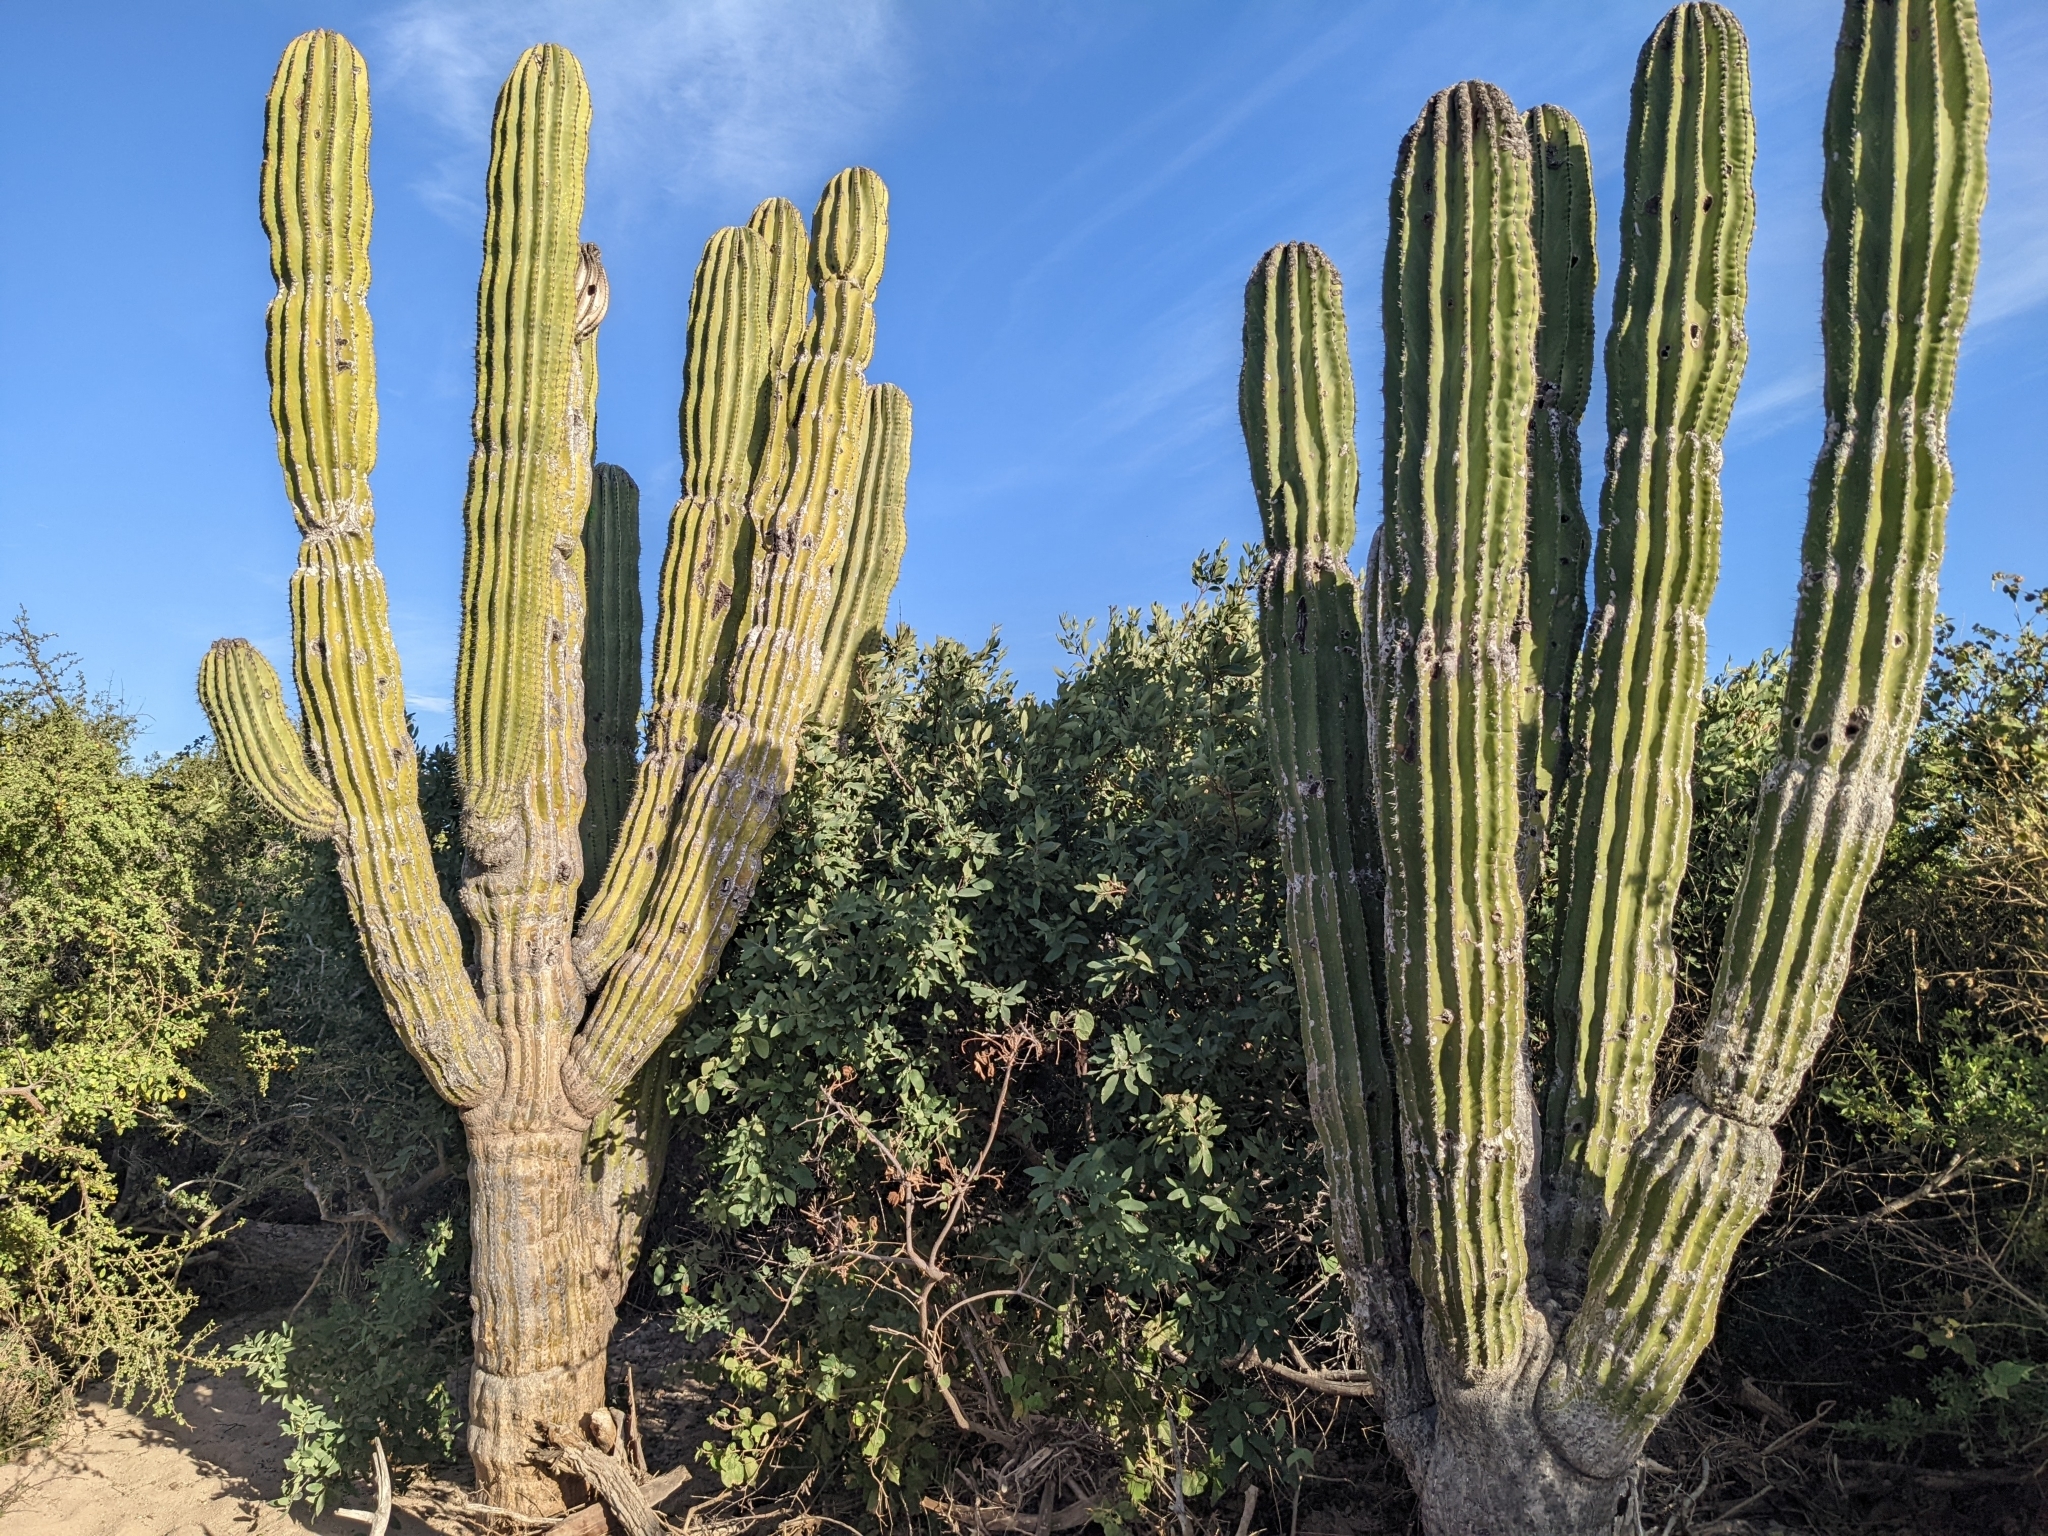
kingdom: Plantae
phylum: Tracheophyta
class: Magnoliopsida
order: Caryophyllales
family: Cactaceae
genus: Pachycereus
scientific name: Pachycereus pringlei
